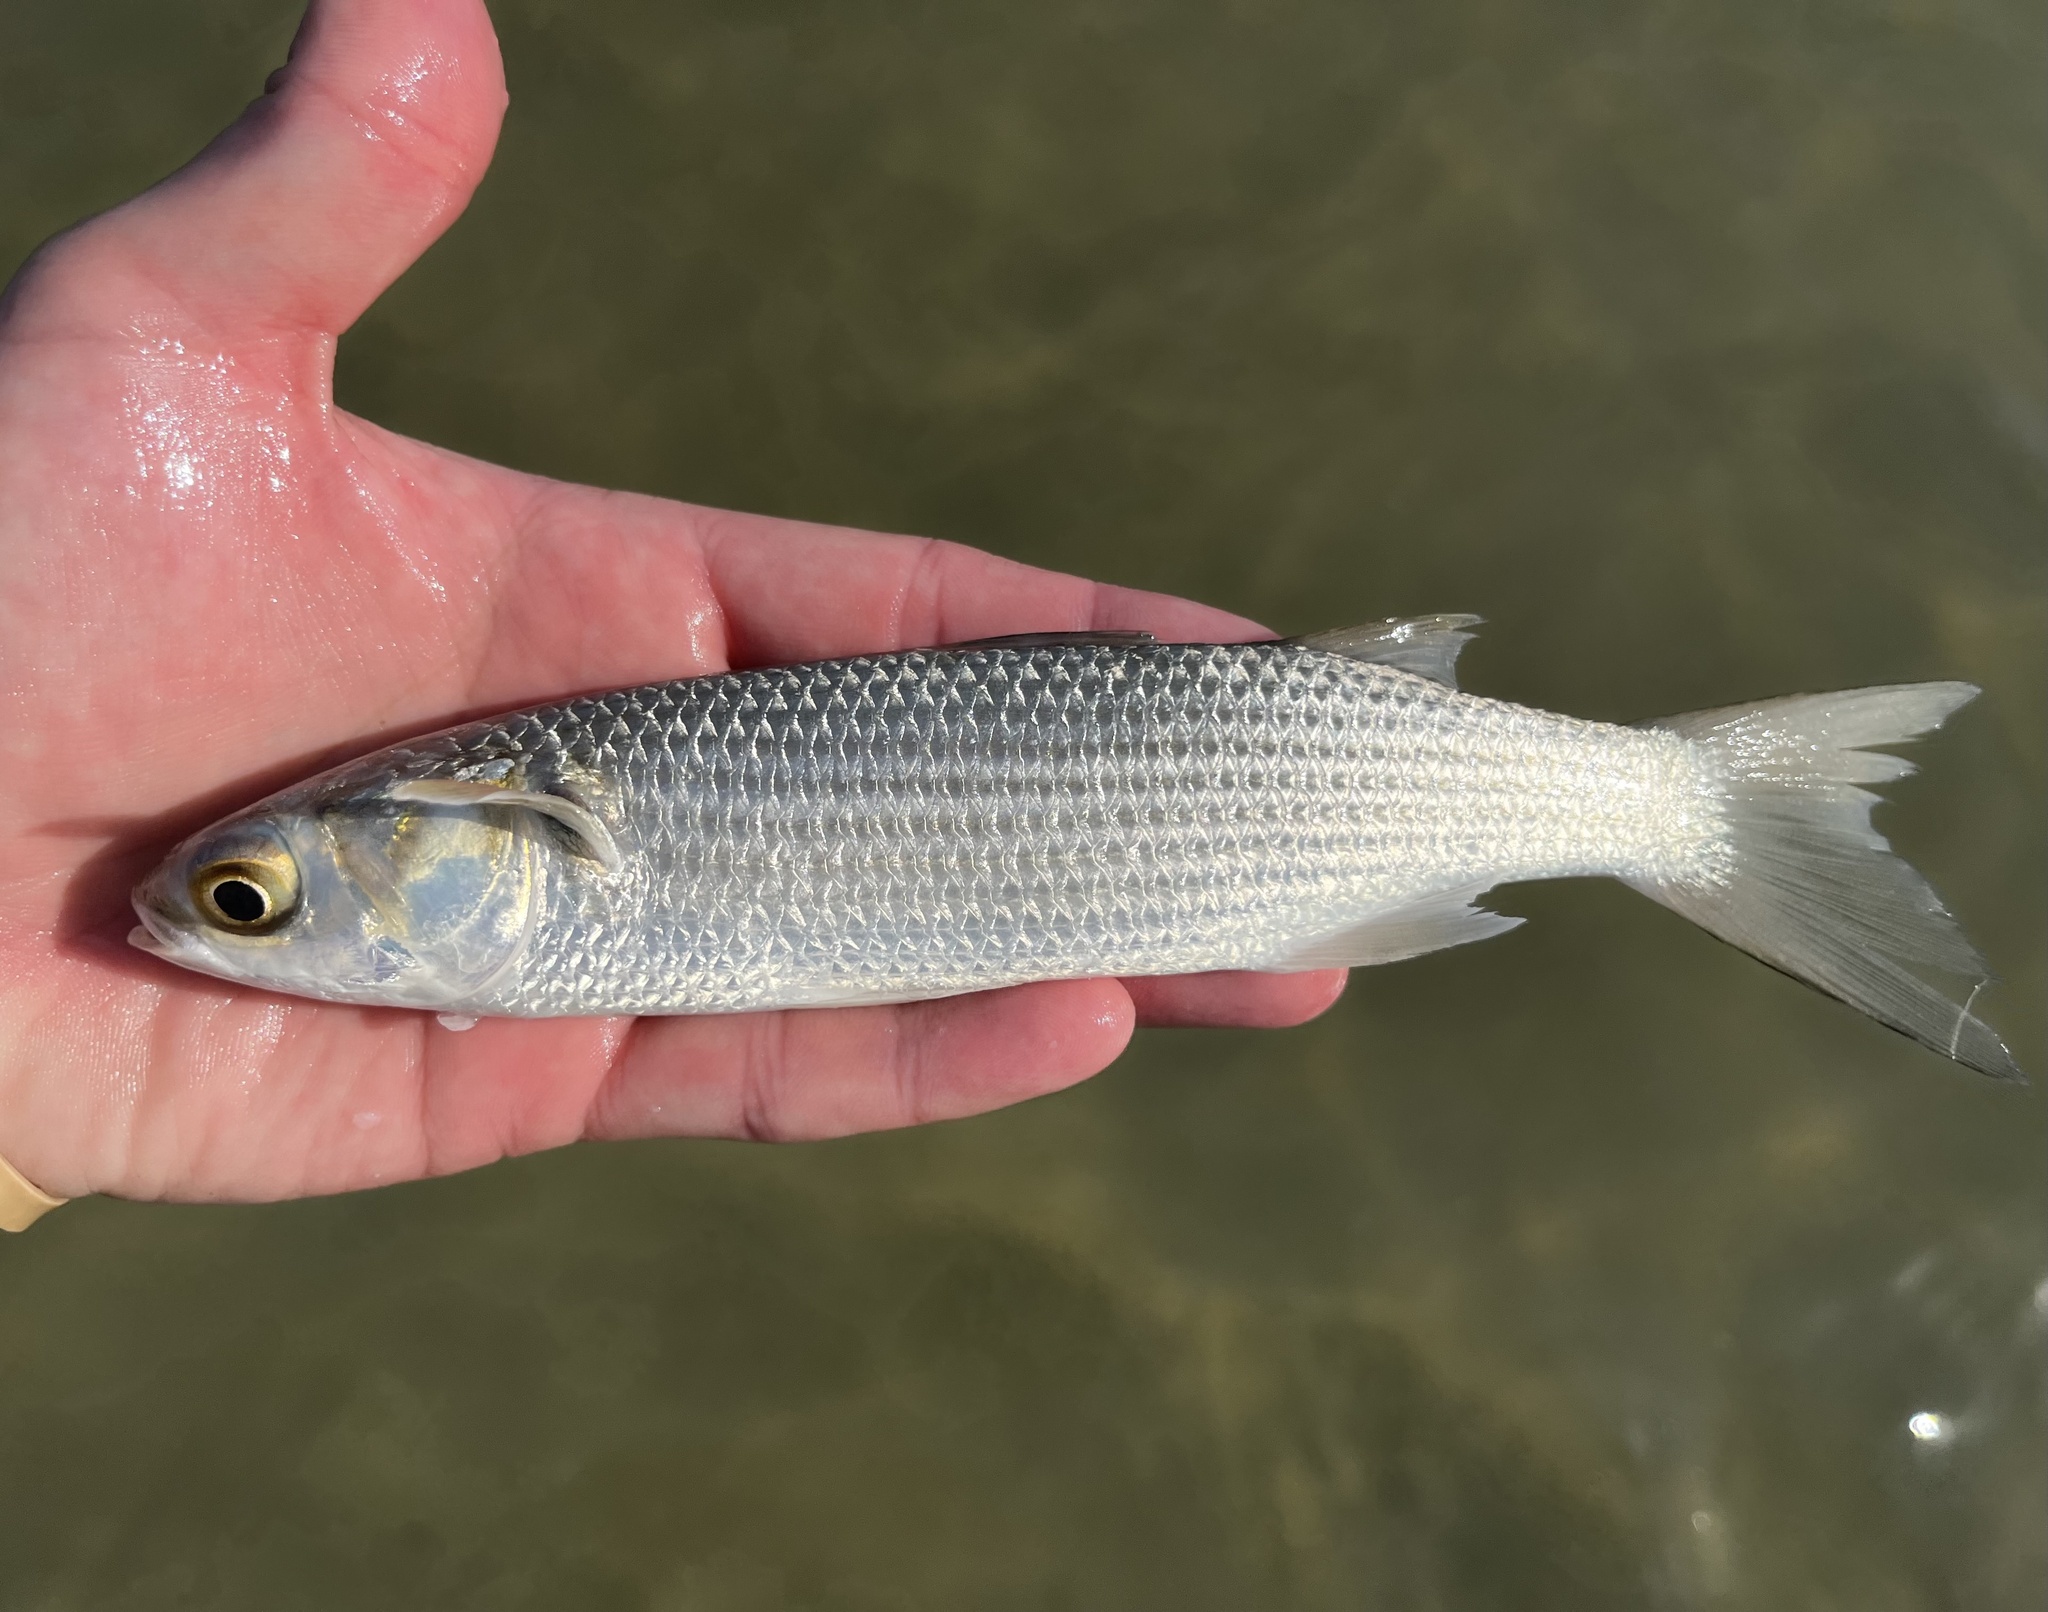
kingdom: Animalia
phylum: Chordata
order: Mugiliformes
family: Mugilidae
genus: Mugil
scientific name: Mugil cephalus
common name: Grey mullet
